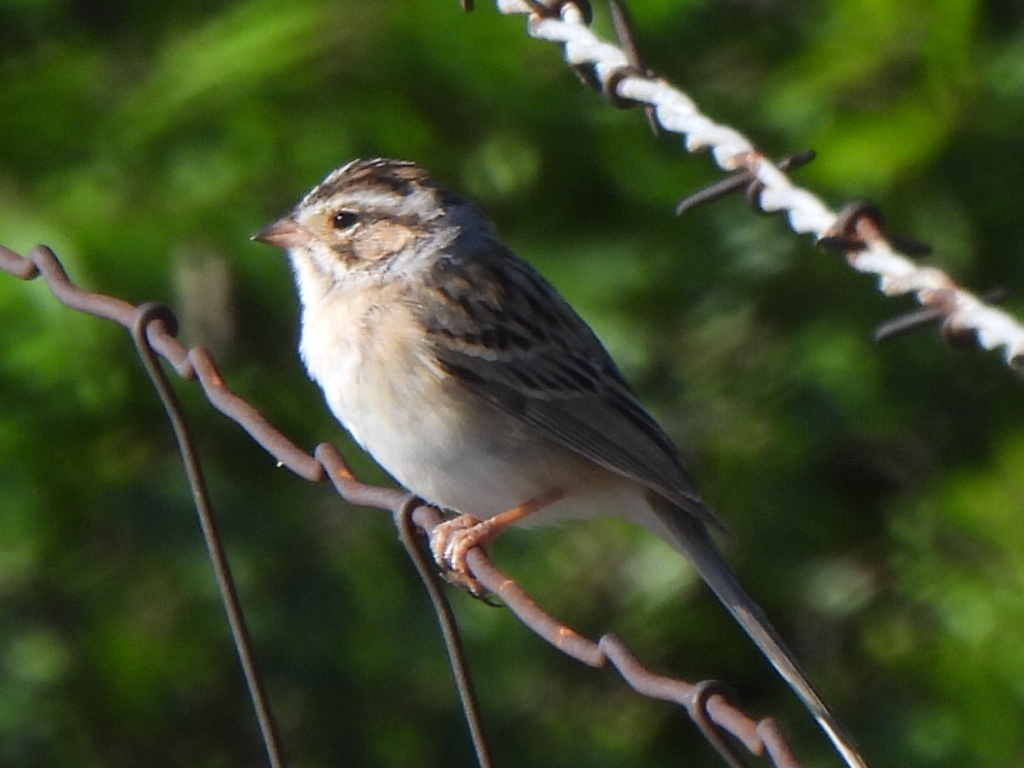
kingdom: Animalia
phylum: Chordata
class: Aves
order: Passeriformes
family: Passerellidae
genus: Spizella
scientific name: Spizella pallida
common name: Clay-colored sparrow
